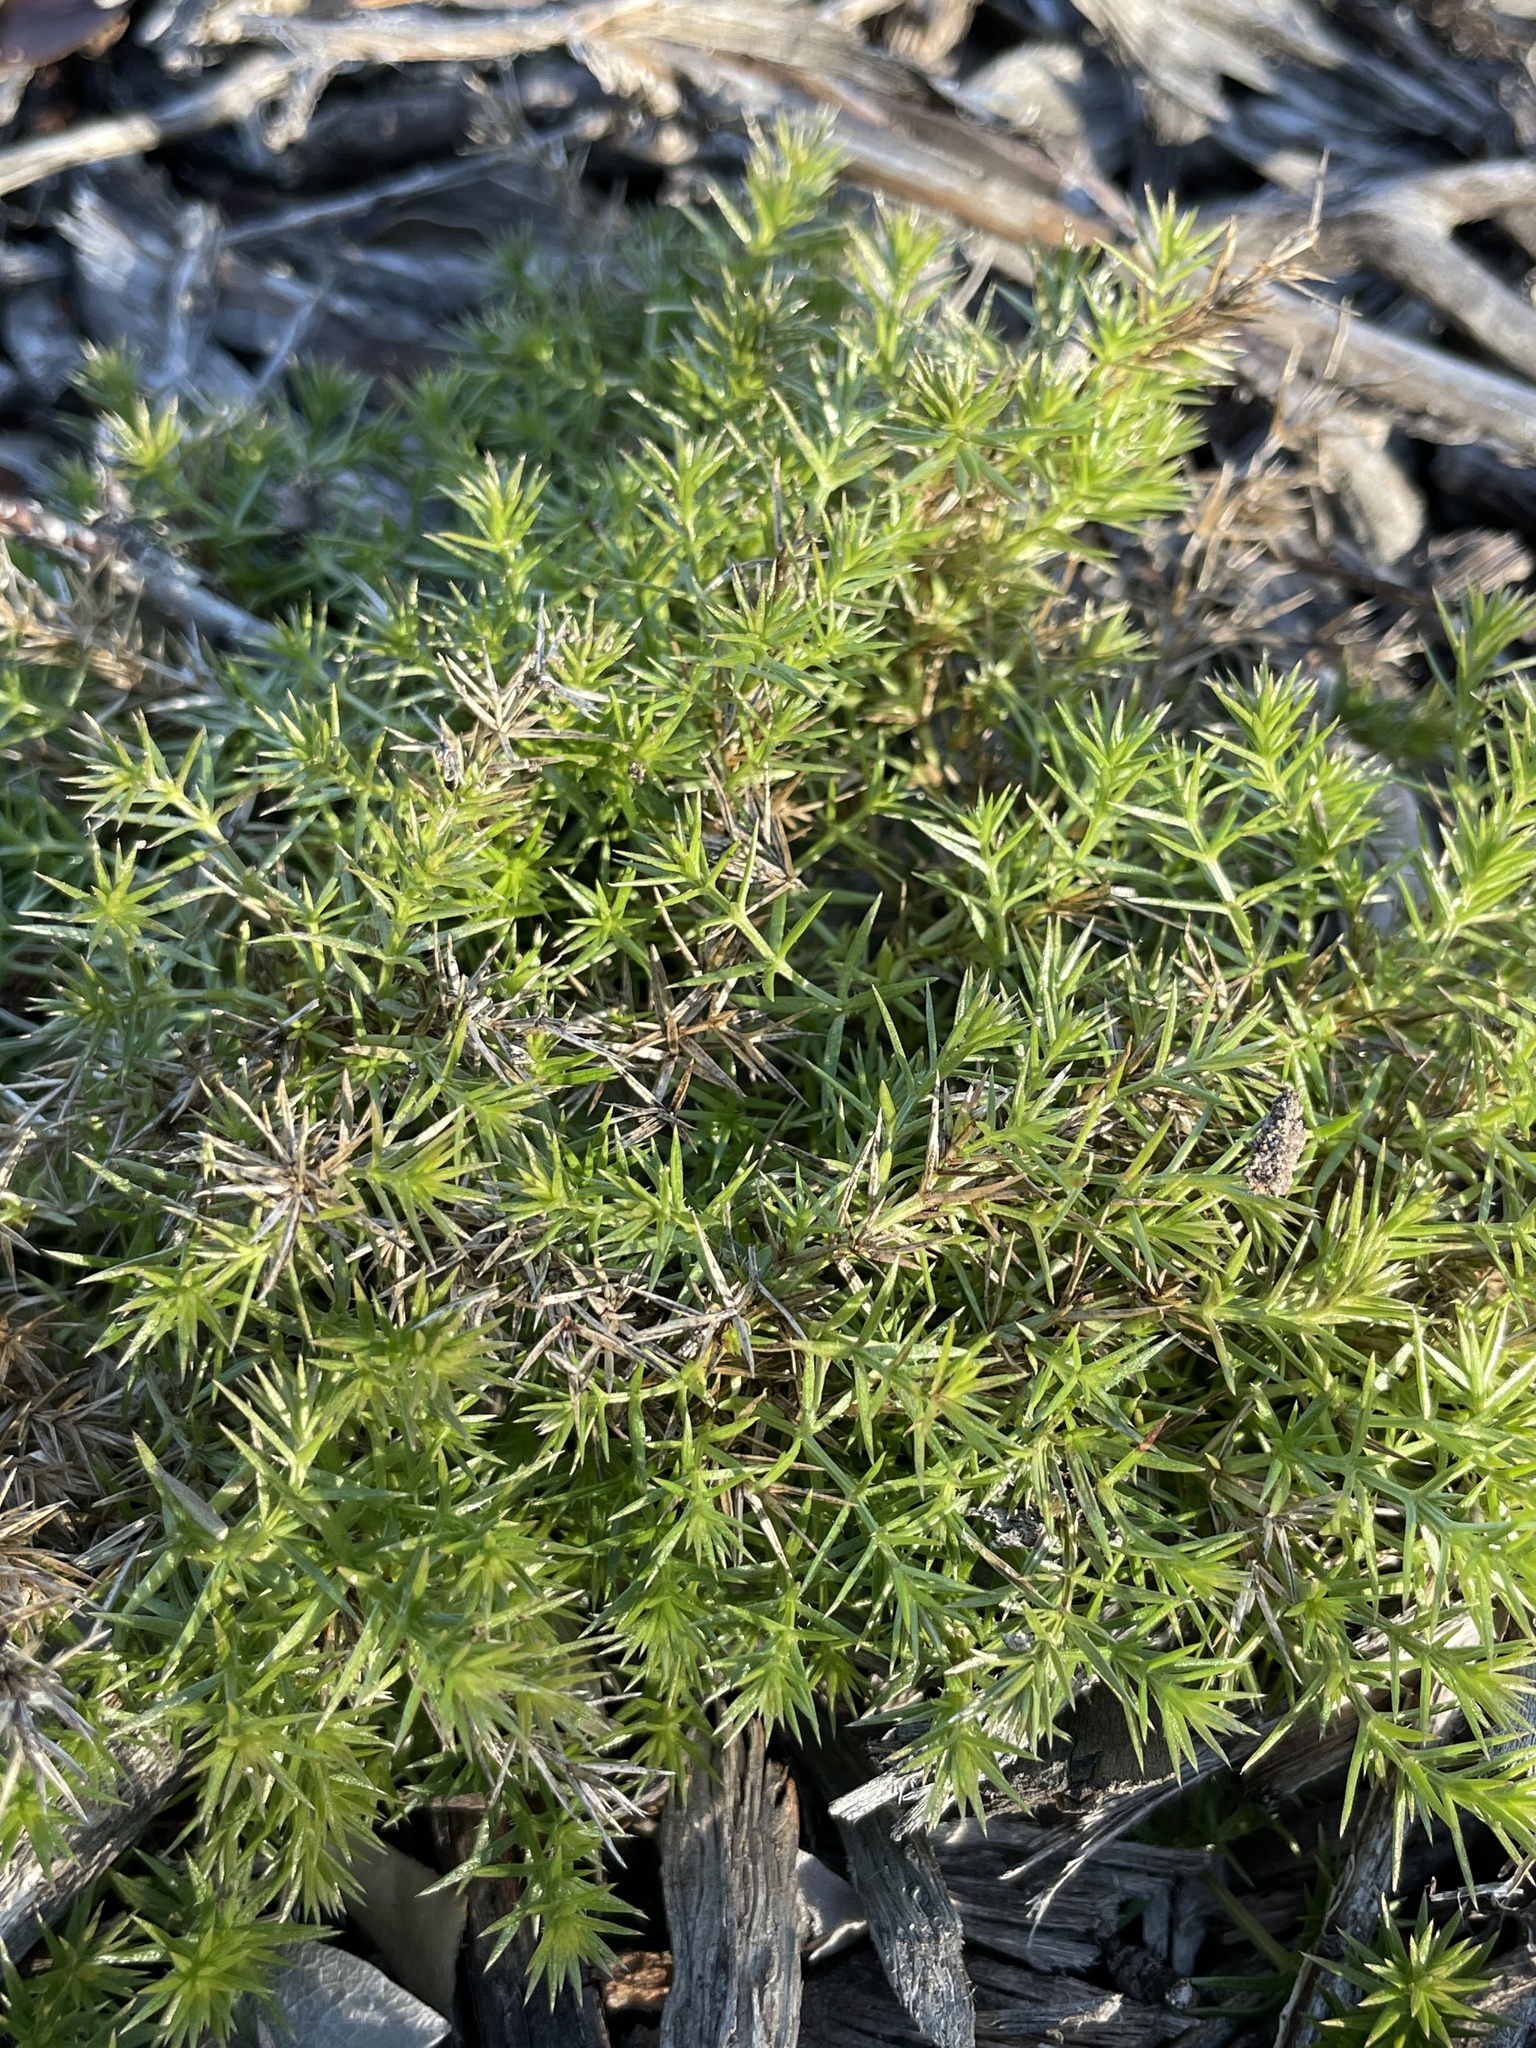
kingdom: Plantae
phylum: Tracheophyta
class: Magnoliopsida
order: Gentianales
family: Rubiaceae
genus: Galium
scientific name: Galium andrewsii
